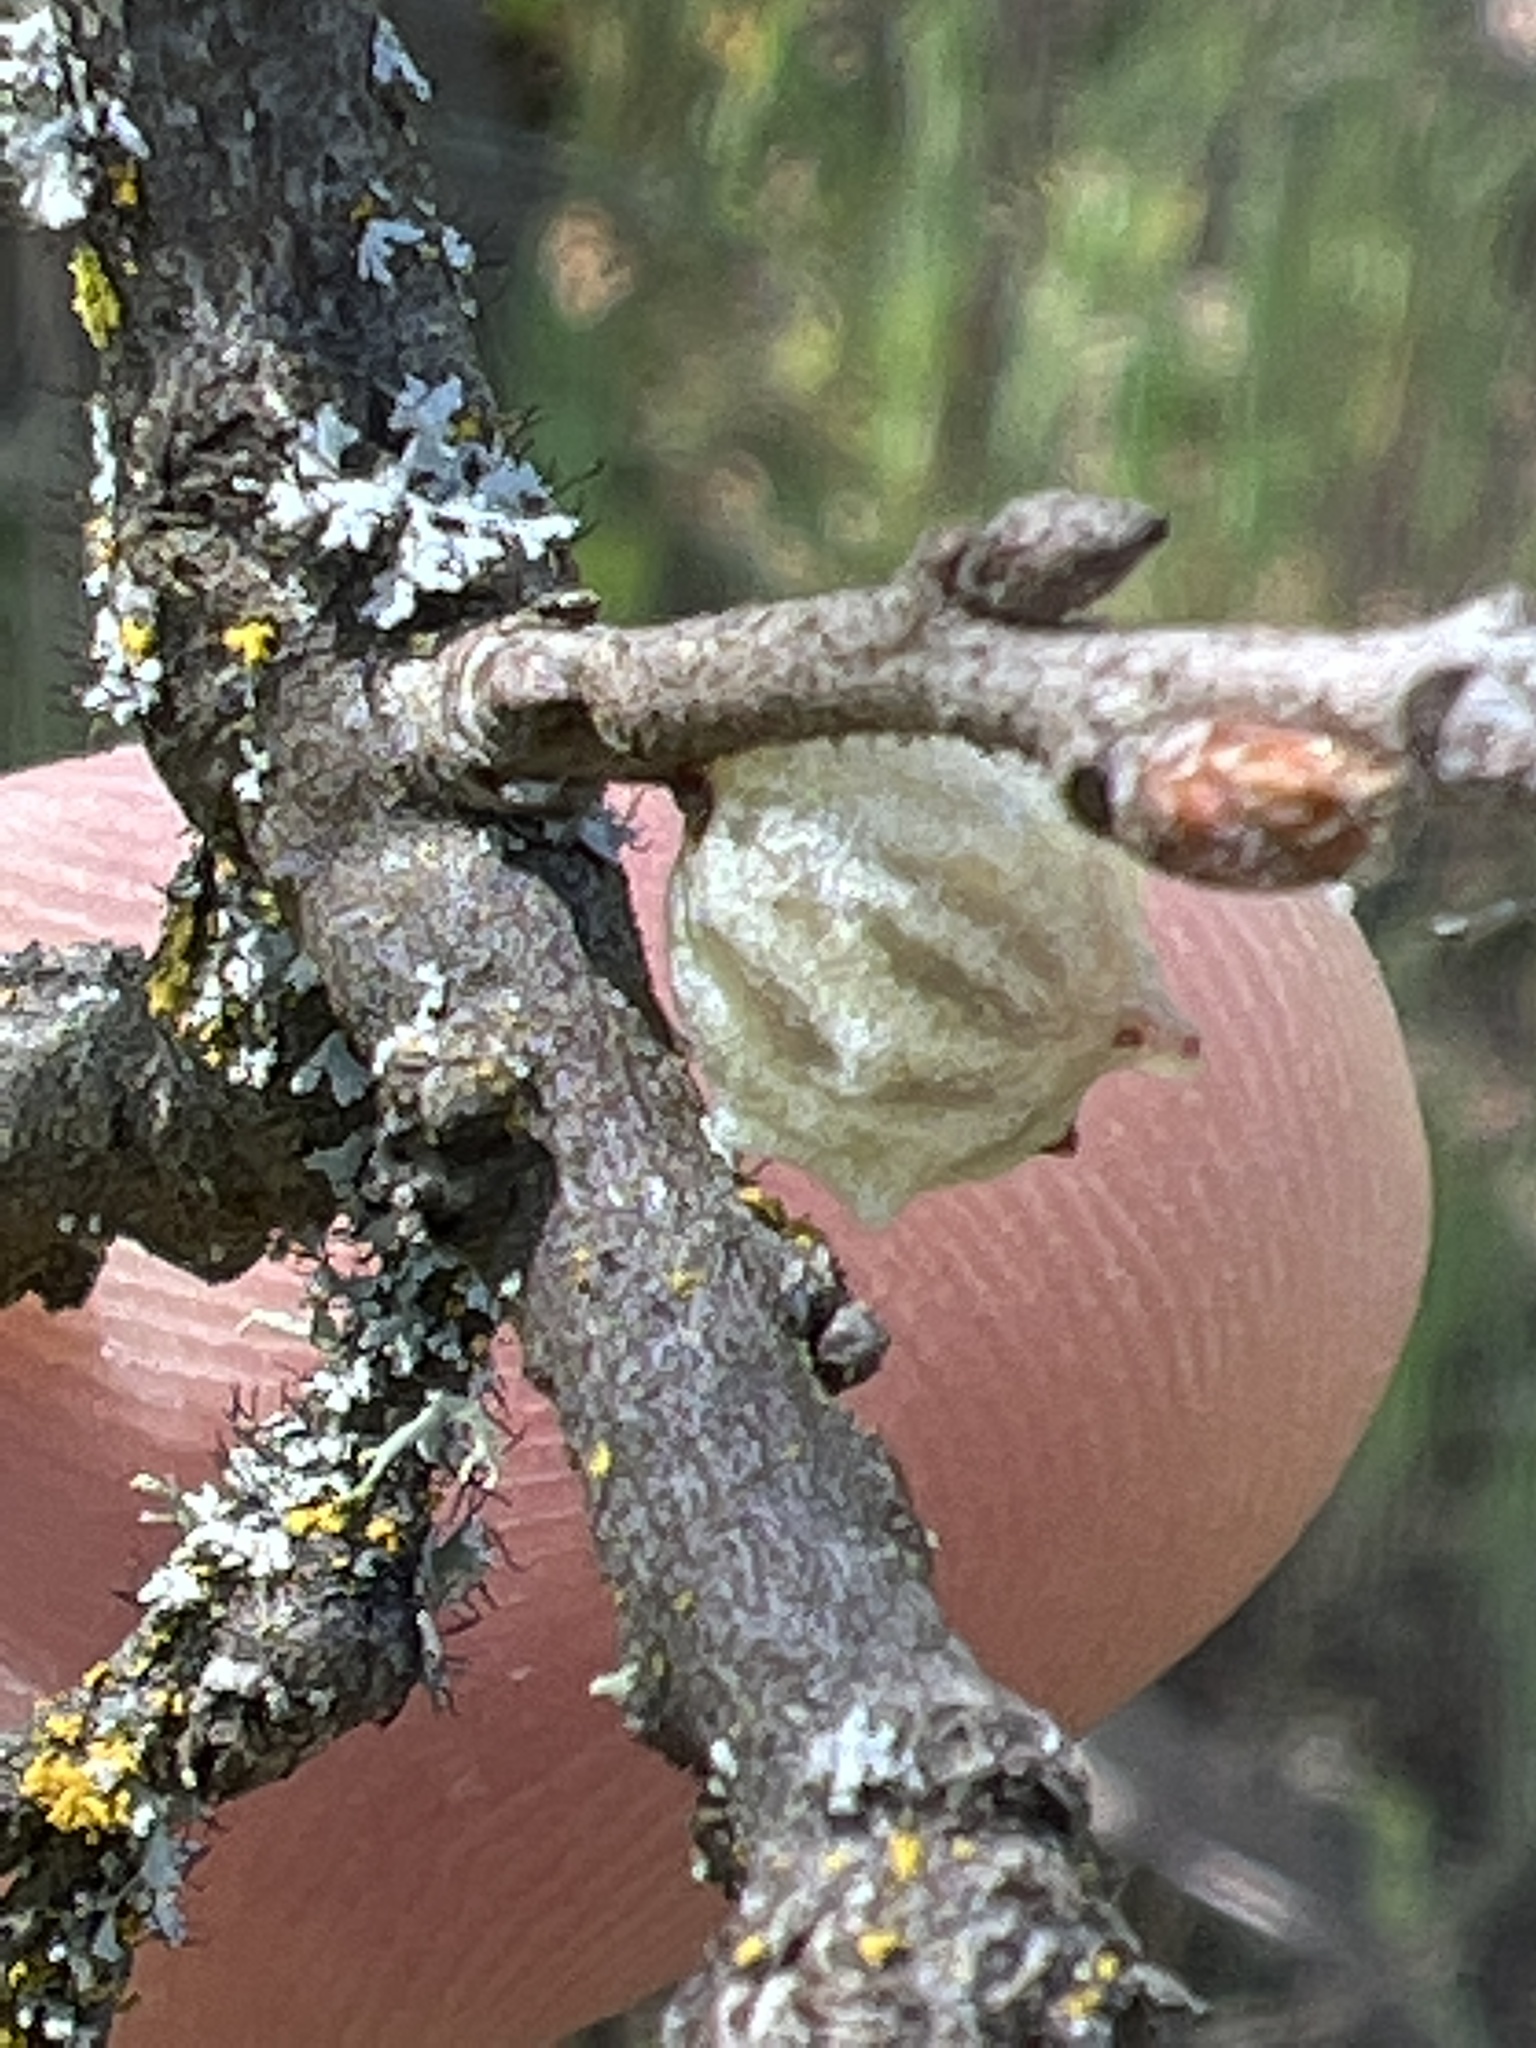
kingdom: Animalia
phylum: Arthropoda
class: Insecta
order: Hymenoptera
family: Cynipidae
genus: Cynips
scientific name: Cynips douglasi
